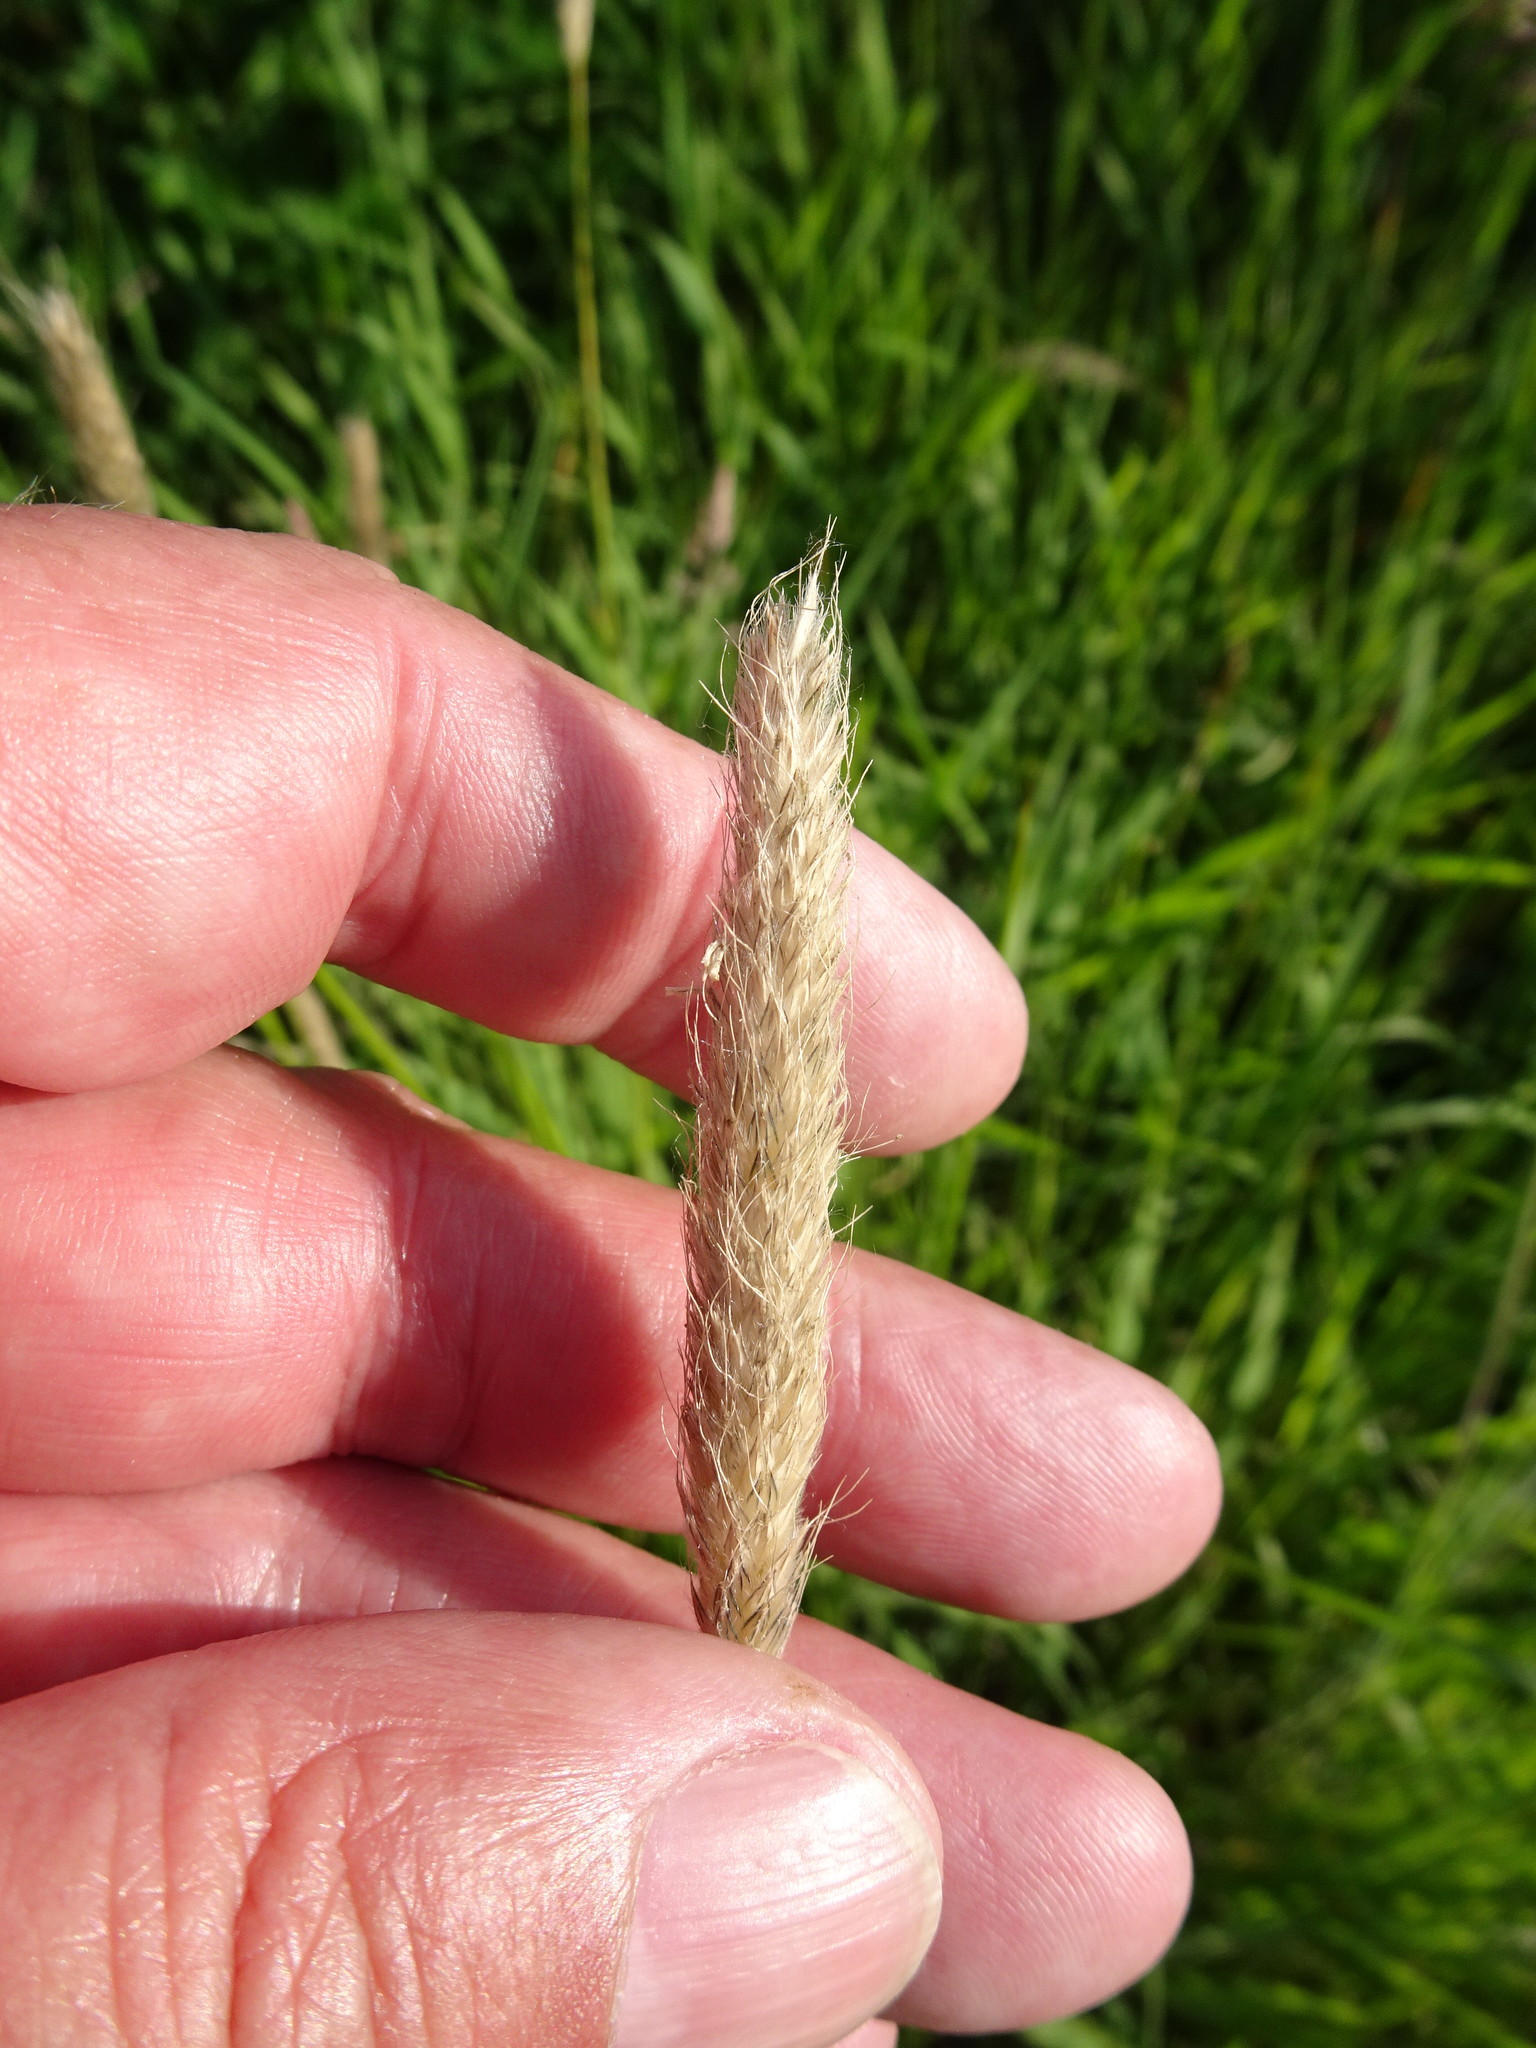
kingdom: Plantae
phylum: Tracheophyta
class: Liliopsida
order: Poales
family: Poaceae
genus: Alopecurus
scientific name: Alopecurus pratensis
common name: Meadow foxtail
